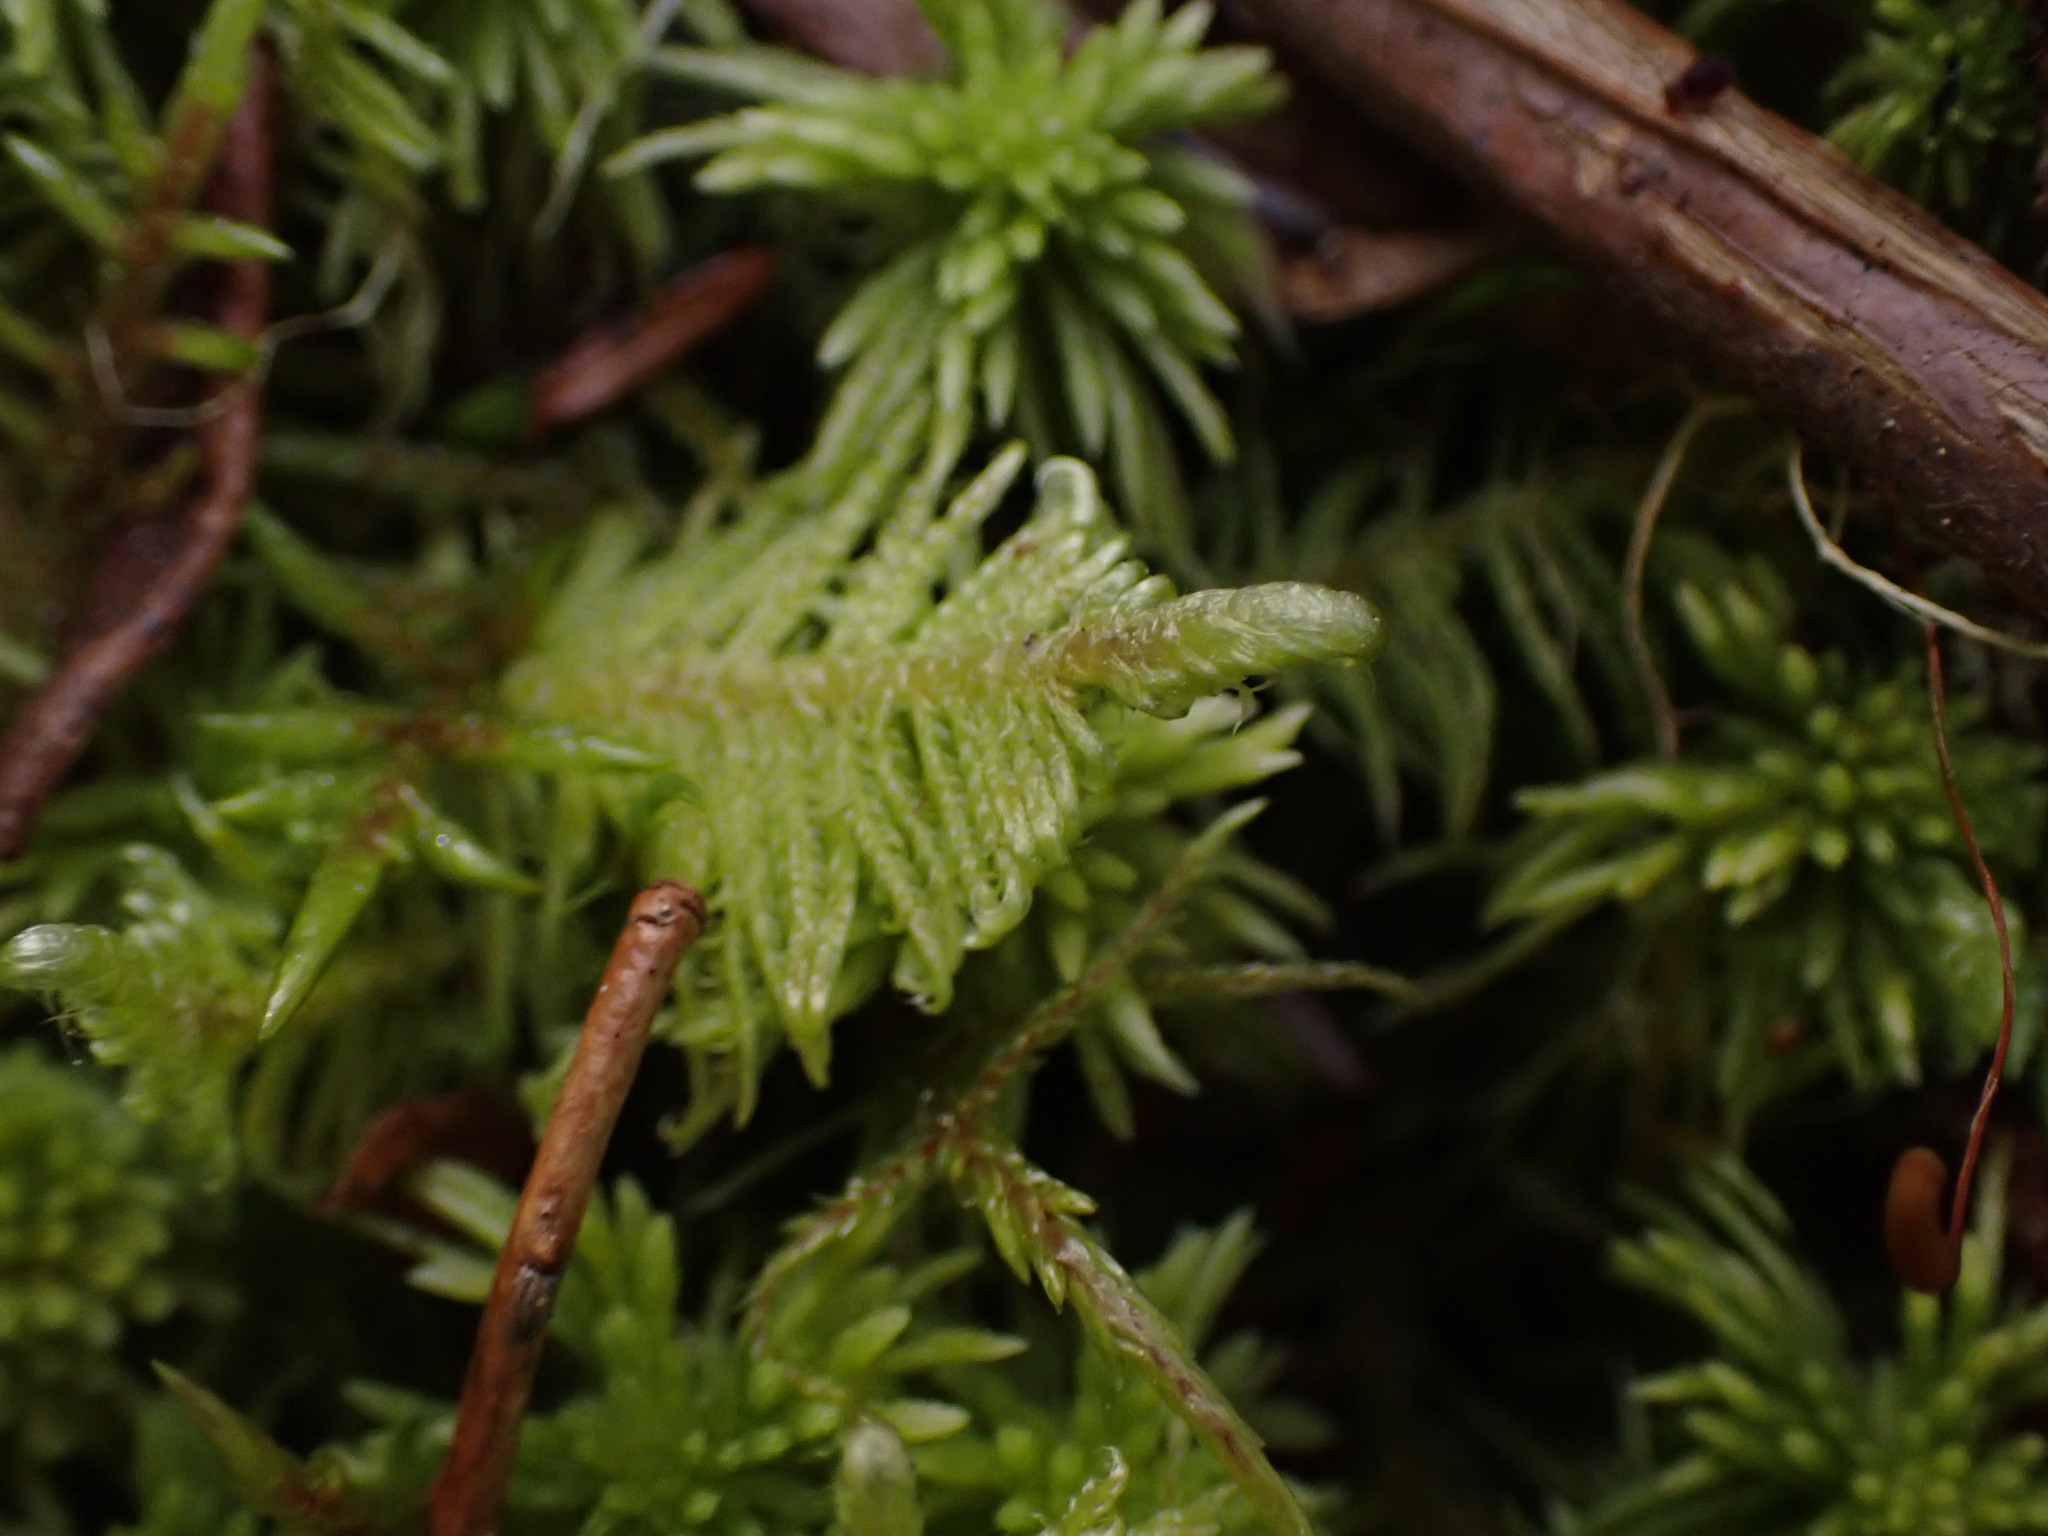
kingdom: Plantae
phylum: Bryophyta
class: Bryopsida
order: Hypnales
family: Pylaisiaceae
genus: Ptilium
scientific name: Ptilium crista-castrensis
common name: Knight's plume moss
